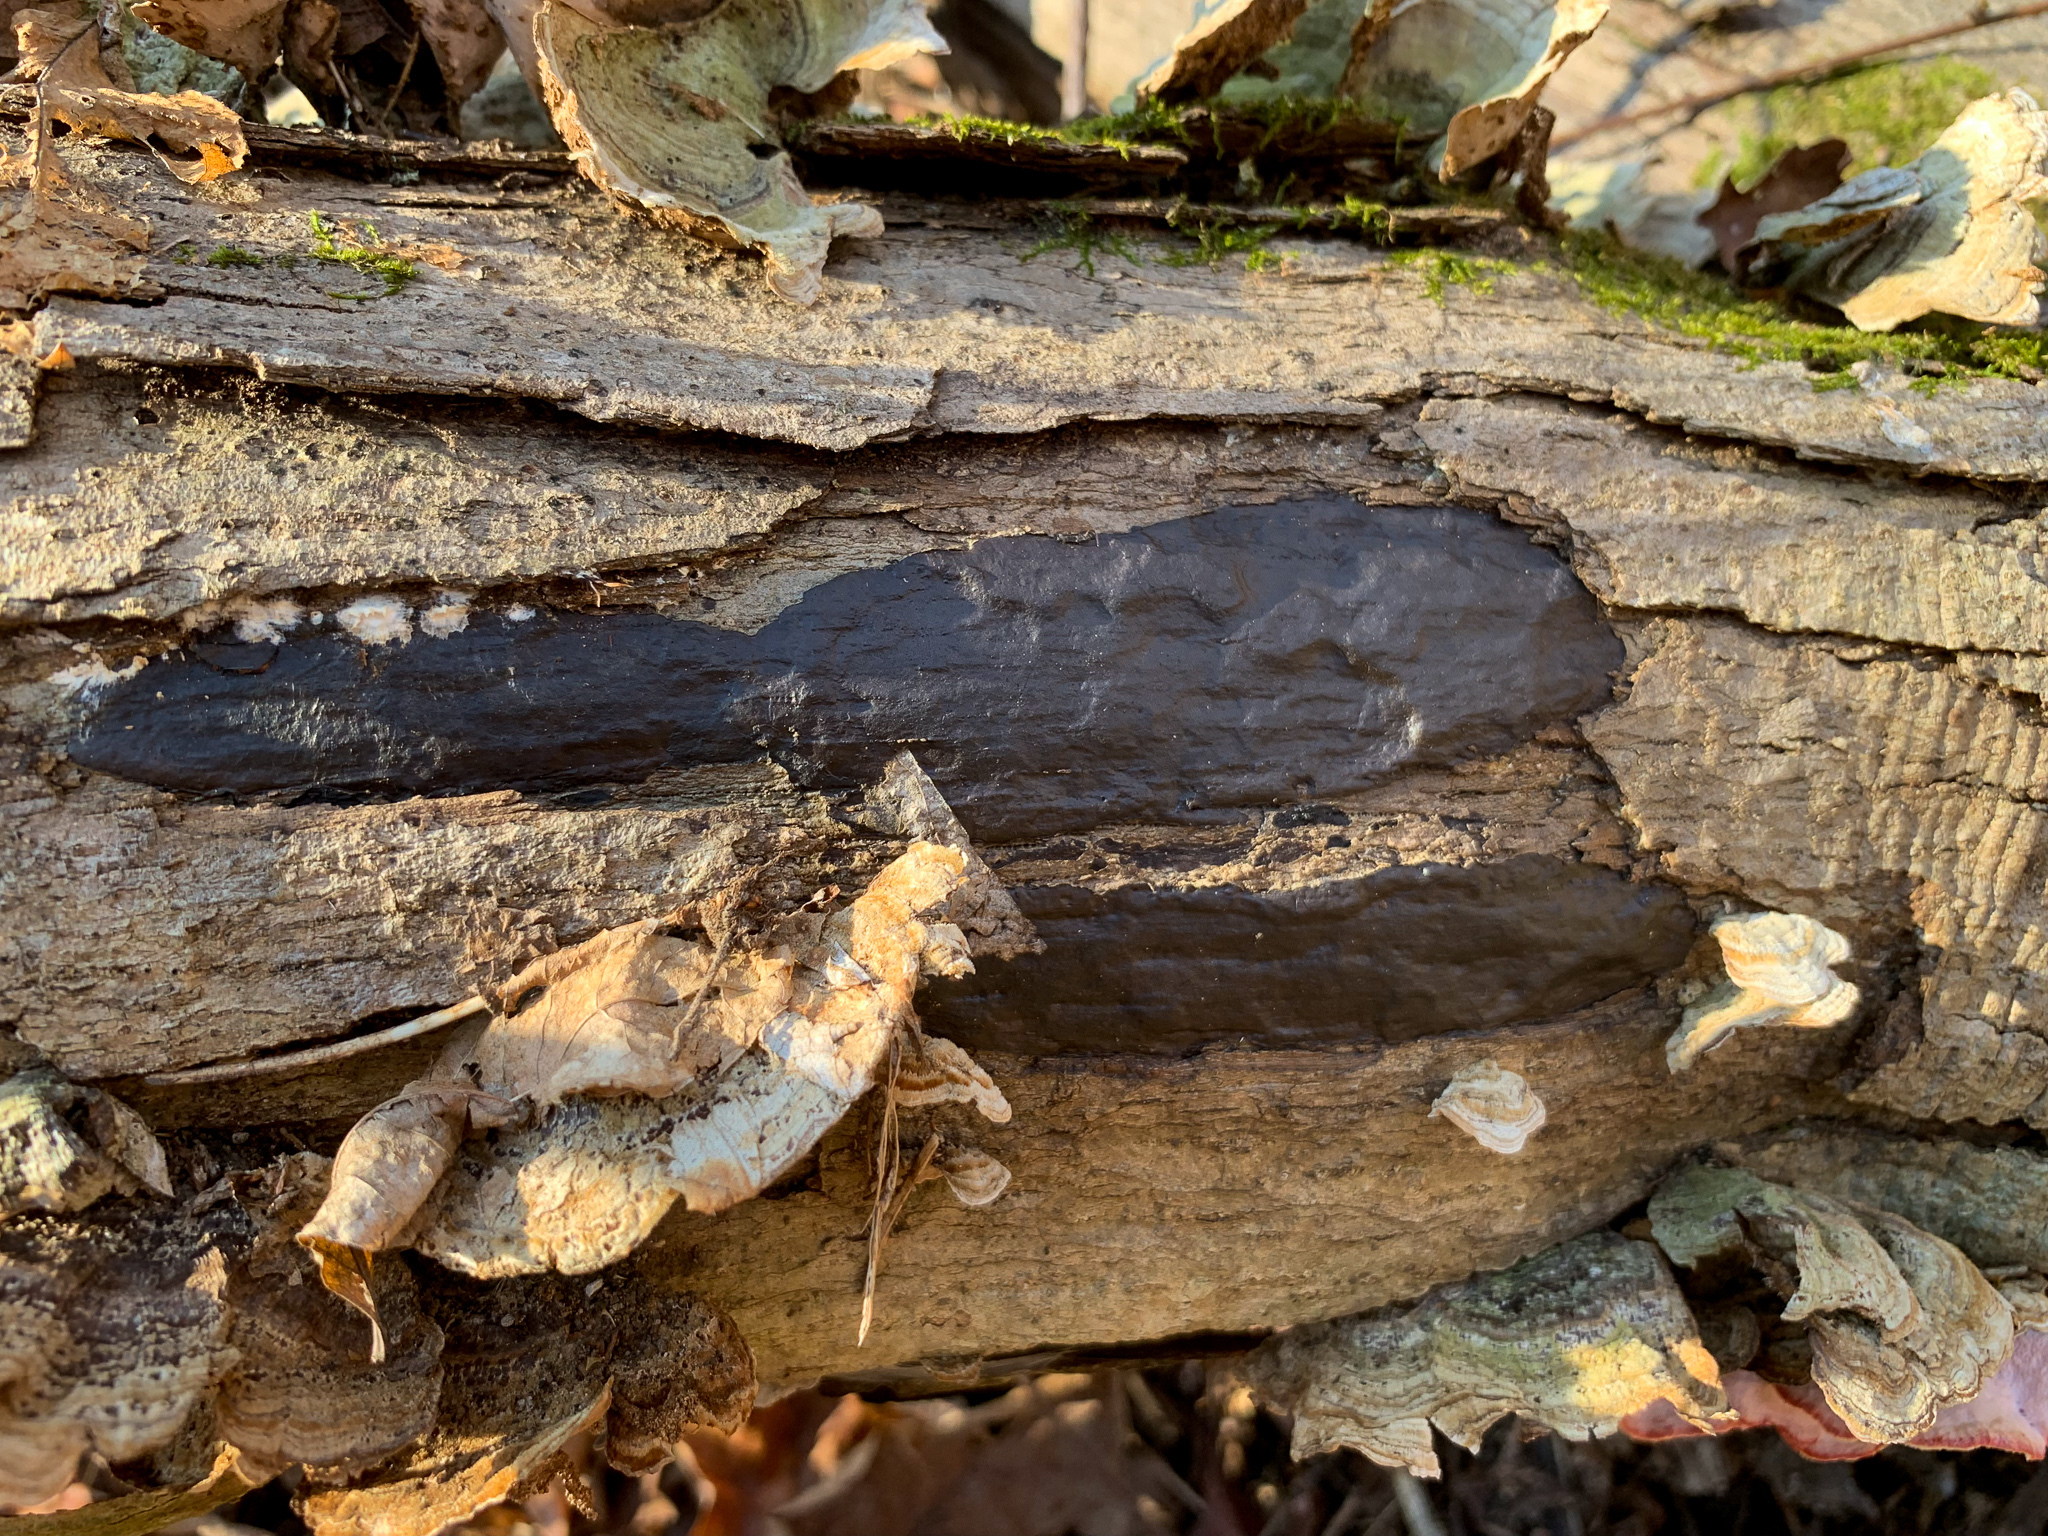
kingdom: Fungi
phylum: Ascomycota
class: Sordariomycetes
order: Xylariales
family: Diatrypaceae
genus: Diatrype
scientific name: Diatrype stigma
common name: Common tarcrust
